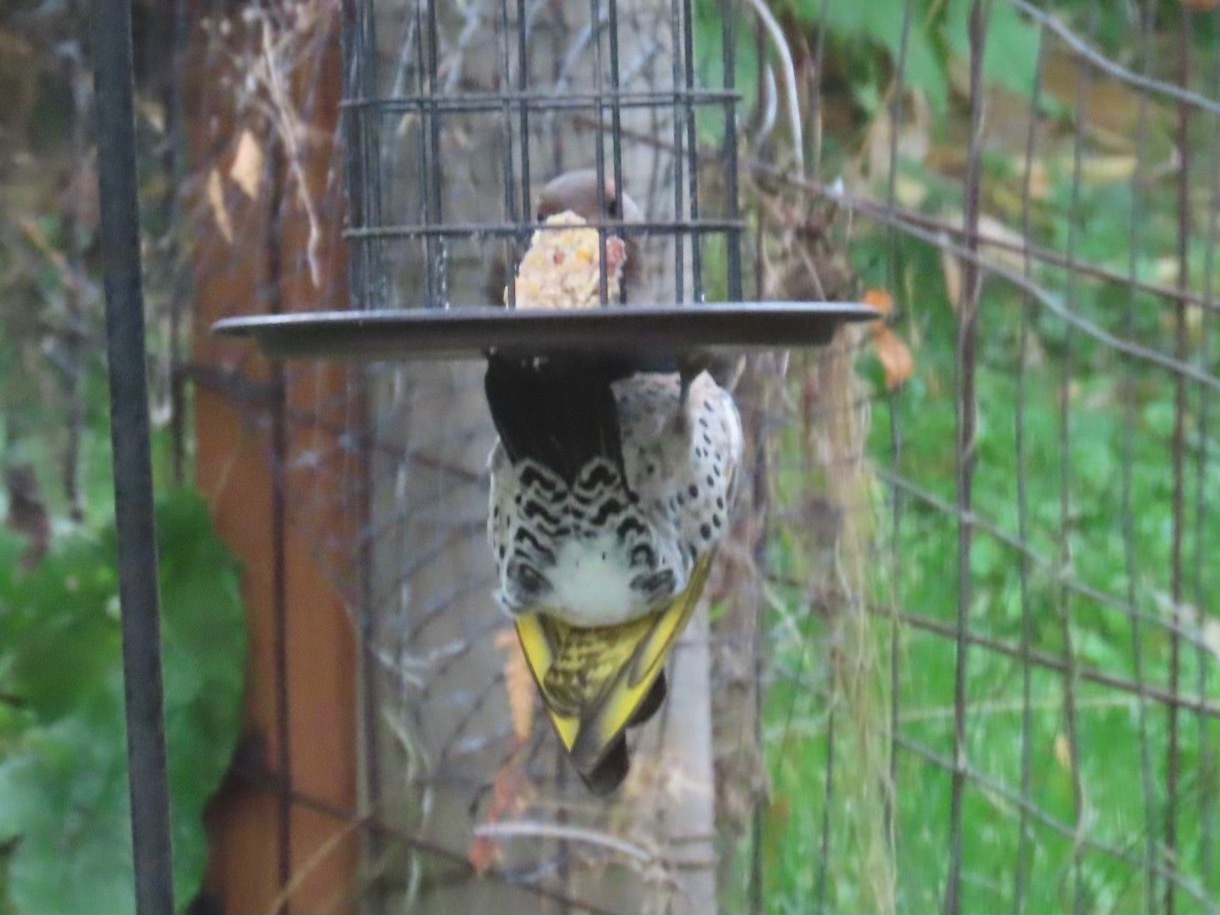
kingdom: Animalia
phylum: Chordata
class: Aves
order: Piciformes
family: Picidae
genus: Colaptes
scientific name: Colaptes auratus
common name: Northern flicker
